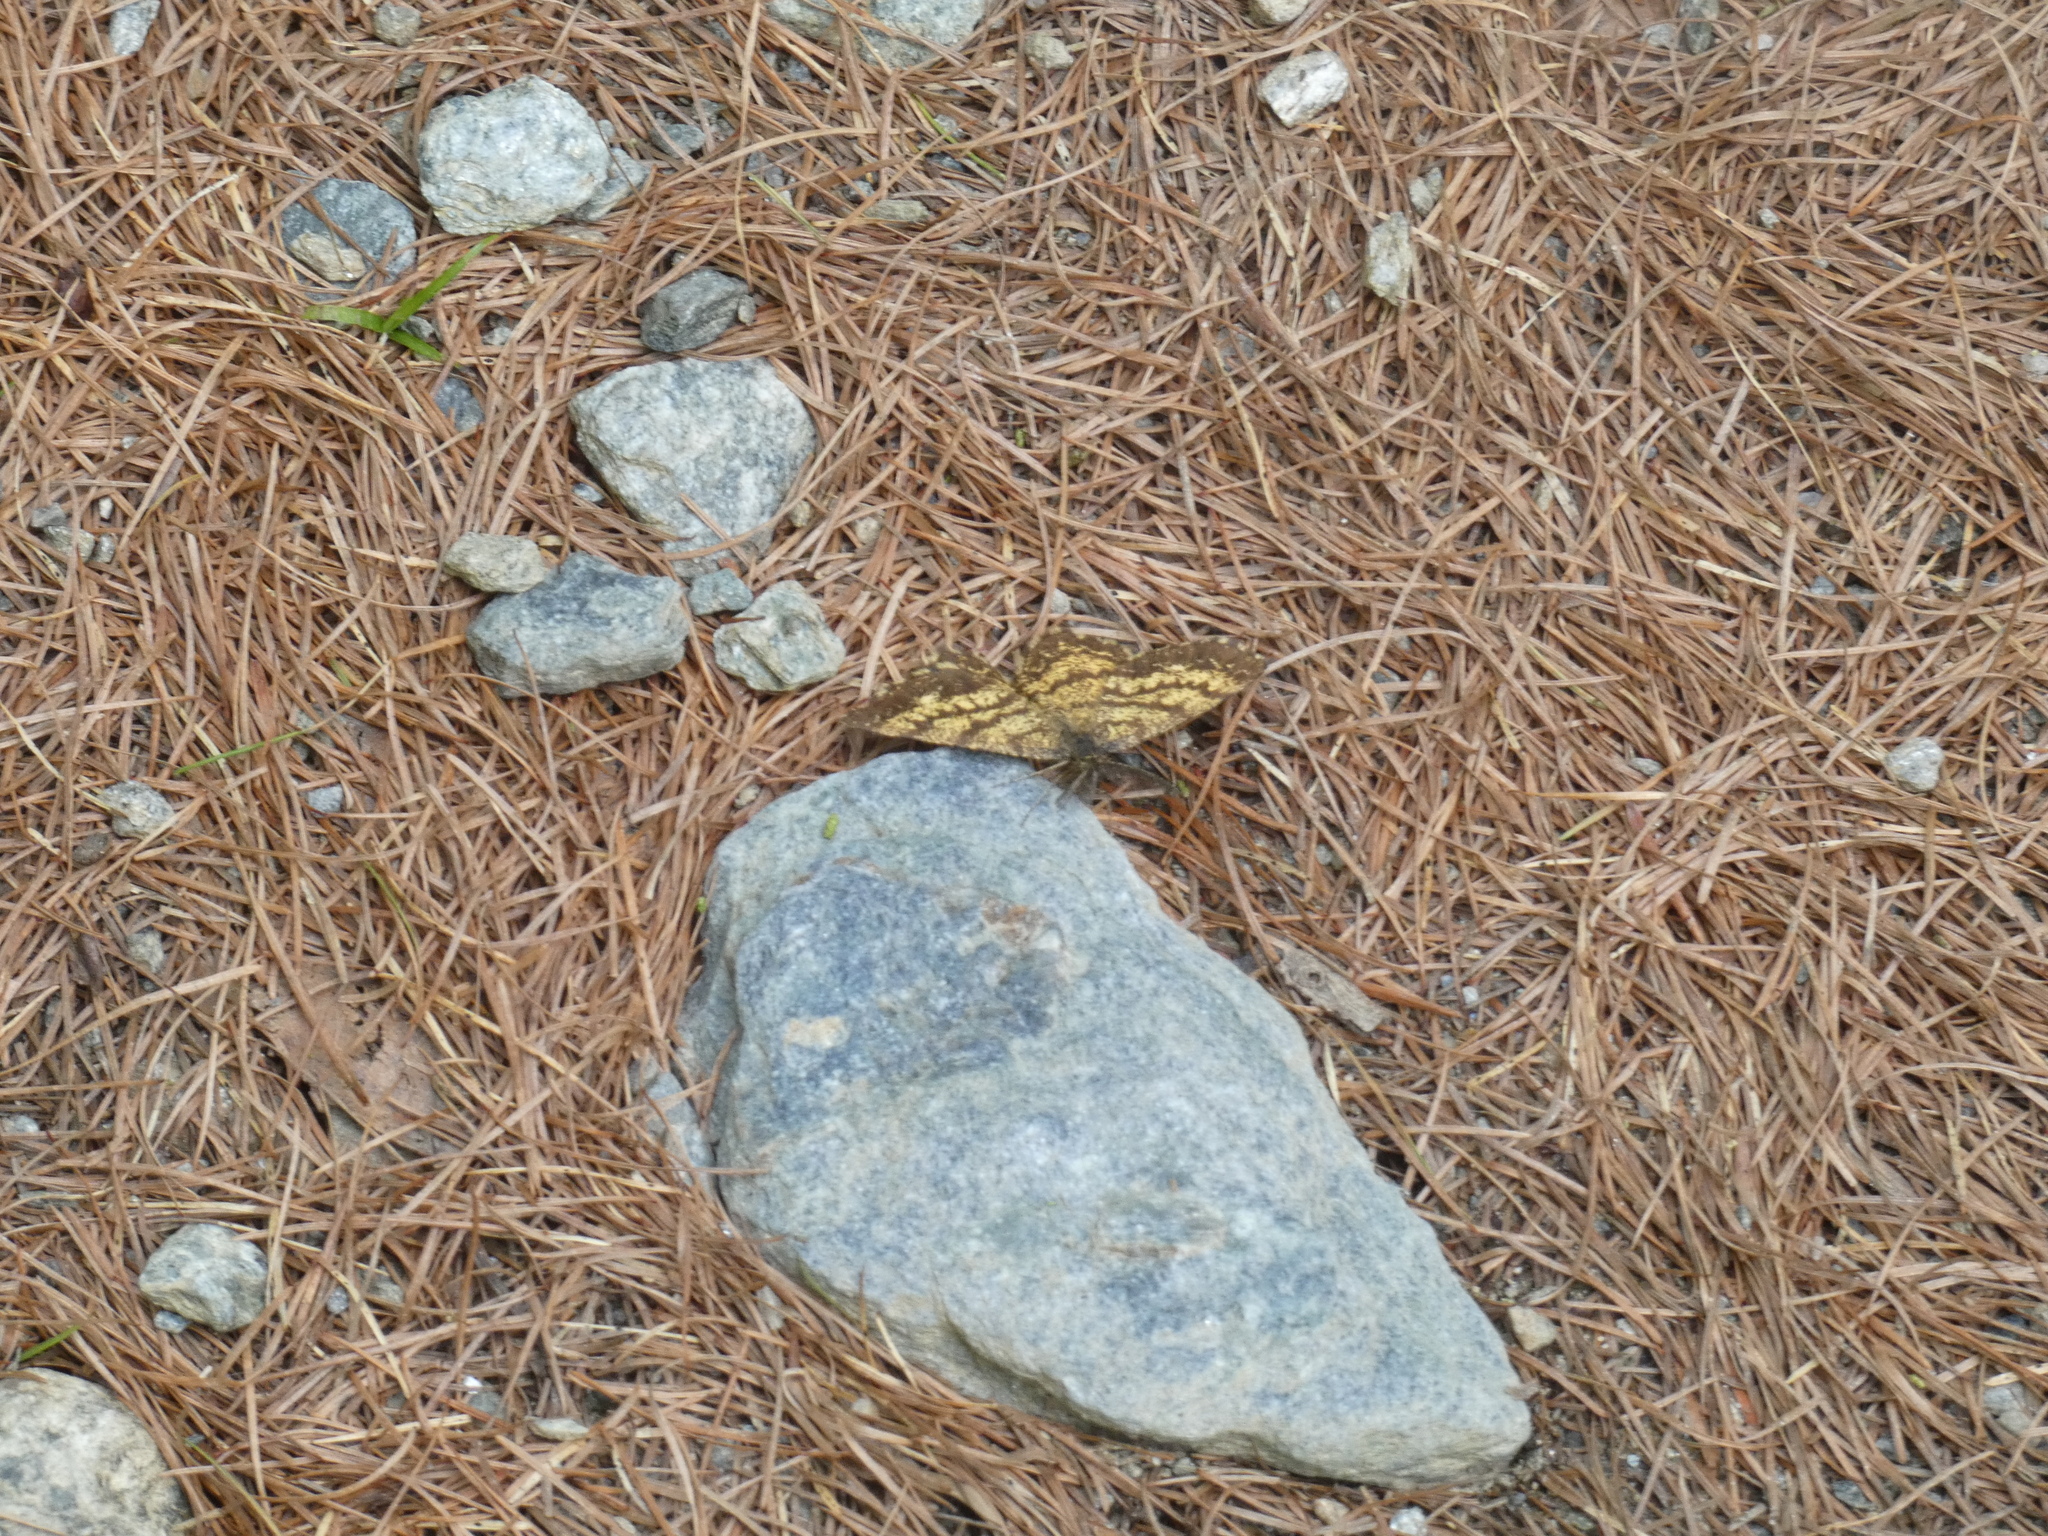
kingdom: Animalia
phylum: Arthropoda
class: Insecta
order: Lepidoptera
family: Geometridae
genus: Ematurga
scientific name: Ematurga atomaria
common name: Common heath
